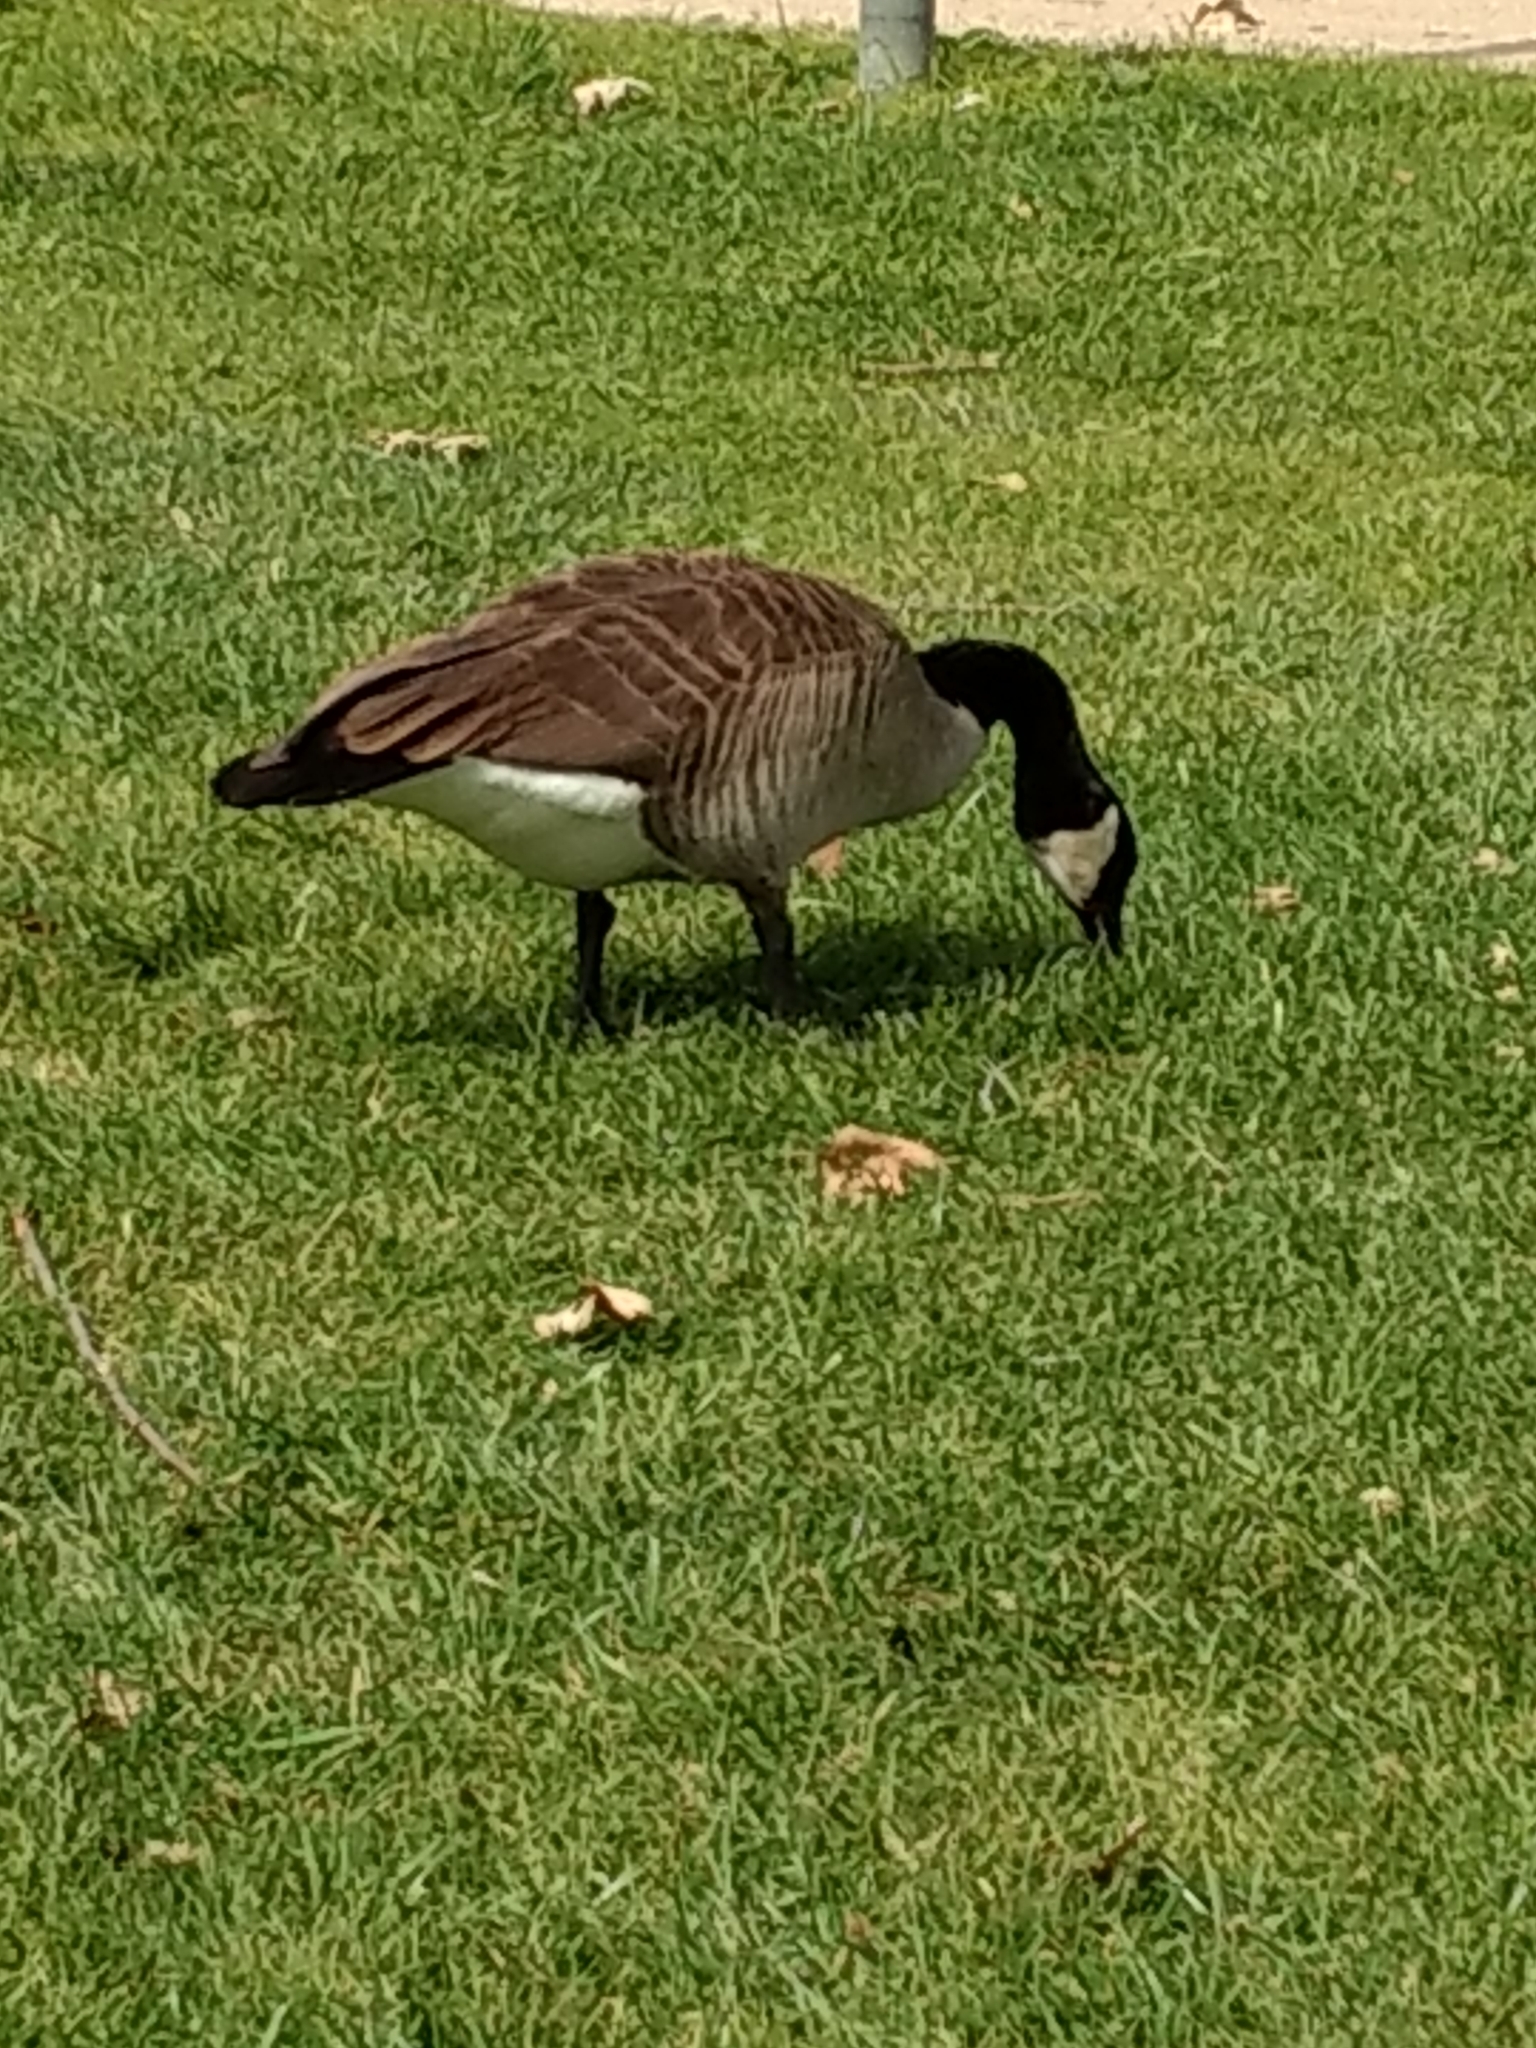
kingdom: Animalia
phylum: Chordata
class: Aves
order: Anseriformes
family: Anatidae
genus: Branta
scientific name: Branta canadensis
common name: Canada goose
